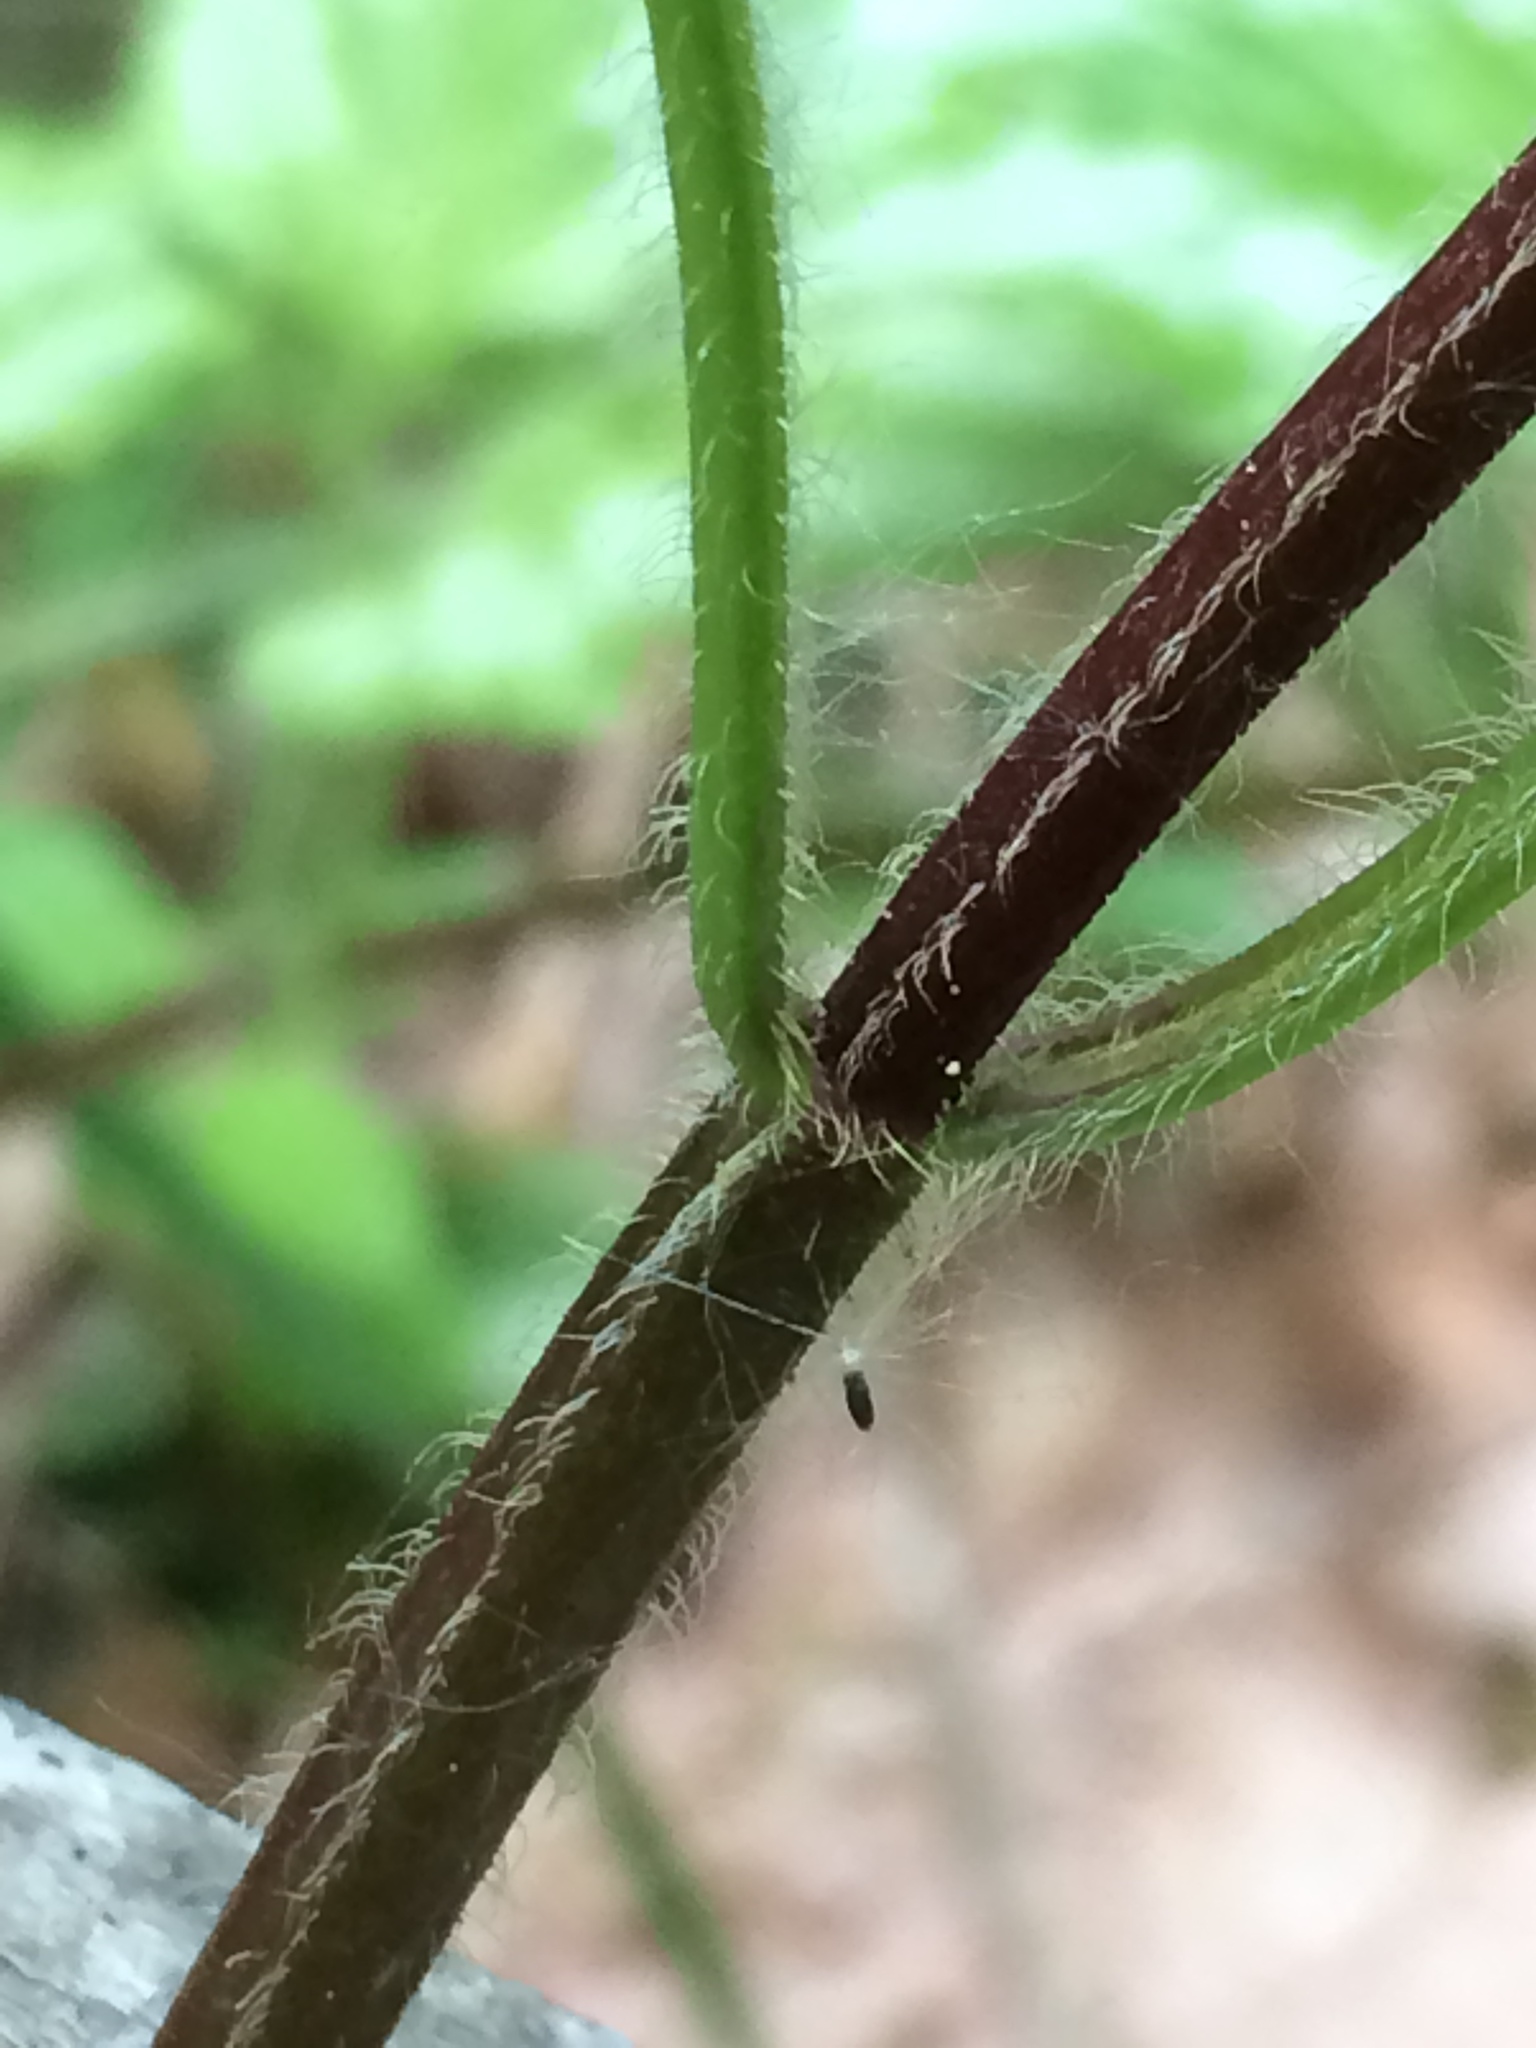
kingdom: Plantae
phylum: Tracheophyta
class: Magnoliopsida
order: Lamiales
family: Lamiaceae
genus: Lamium
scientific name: Lamium galeobdolon
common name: Yellow archangel
